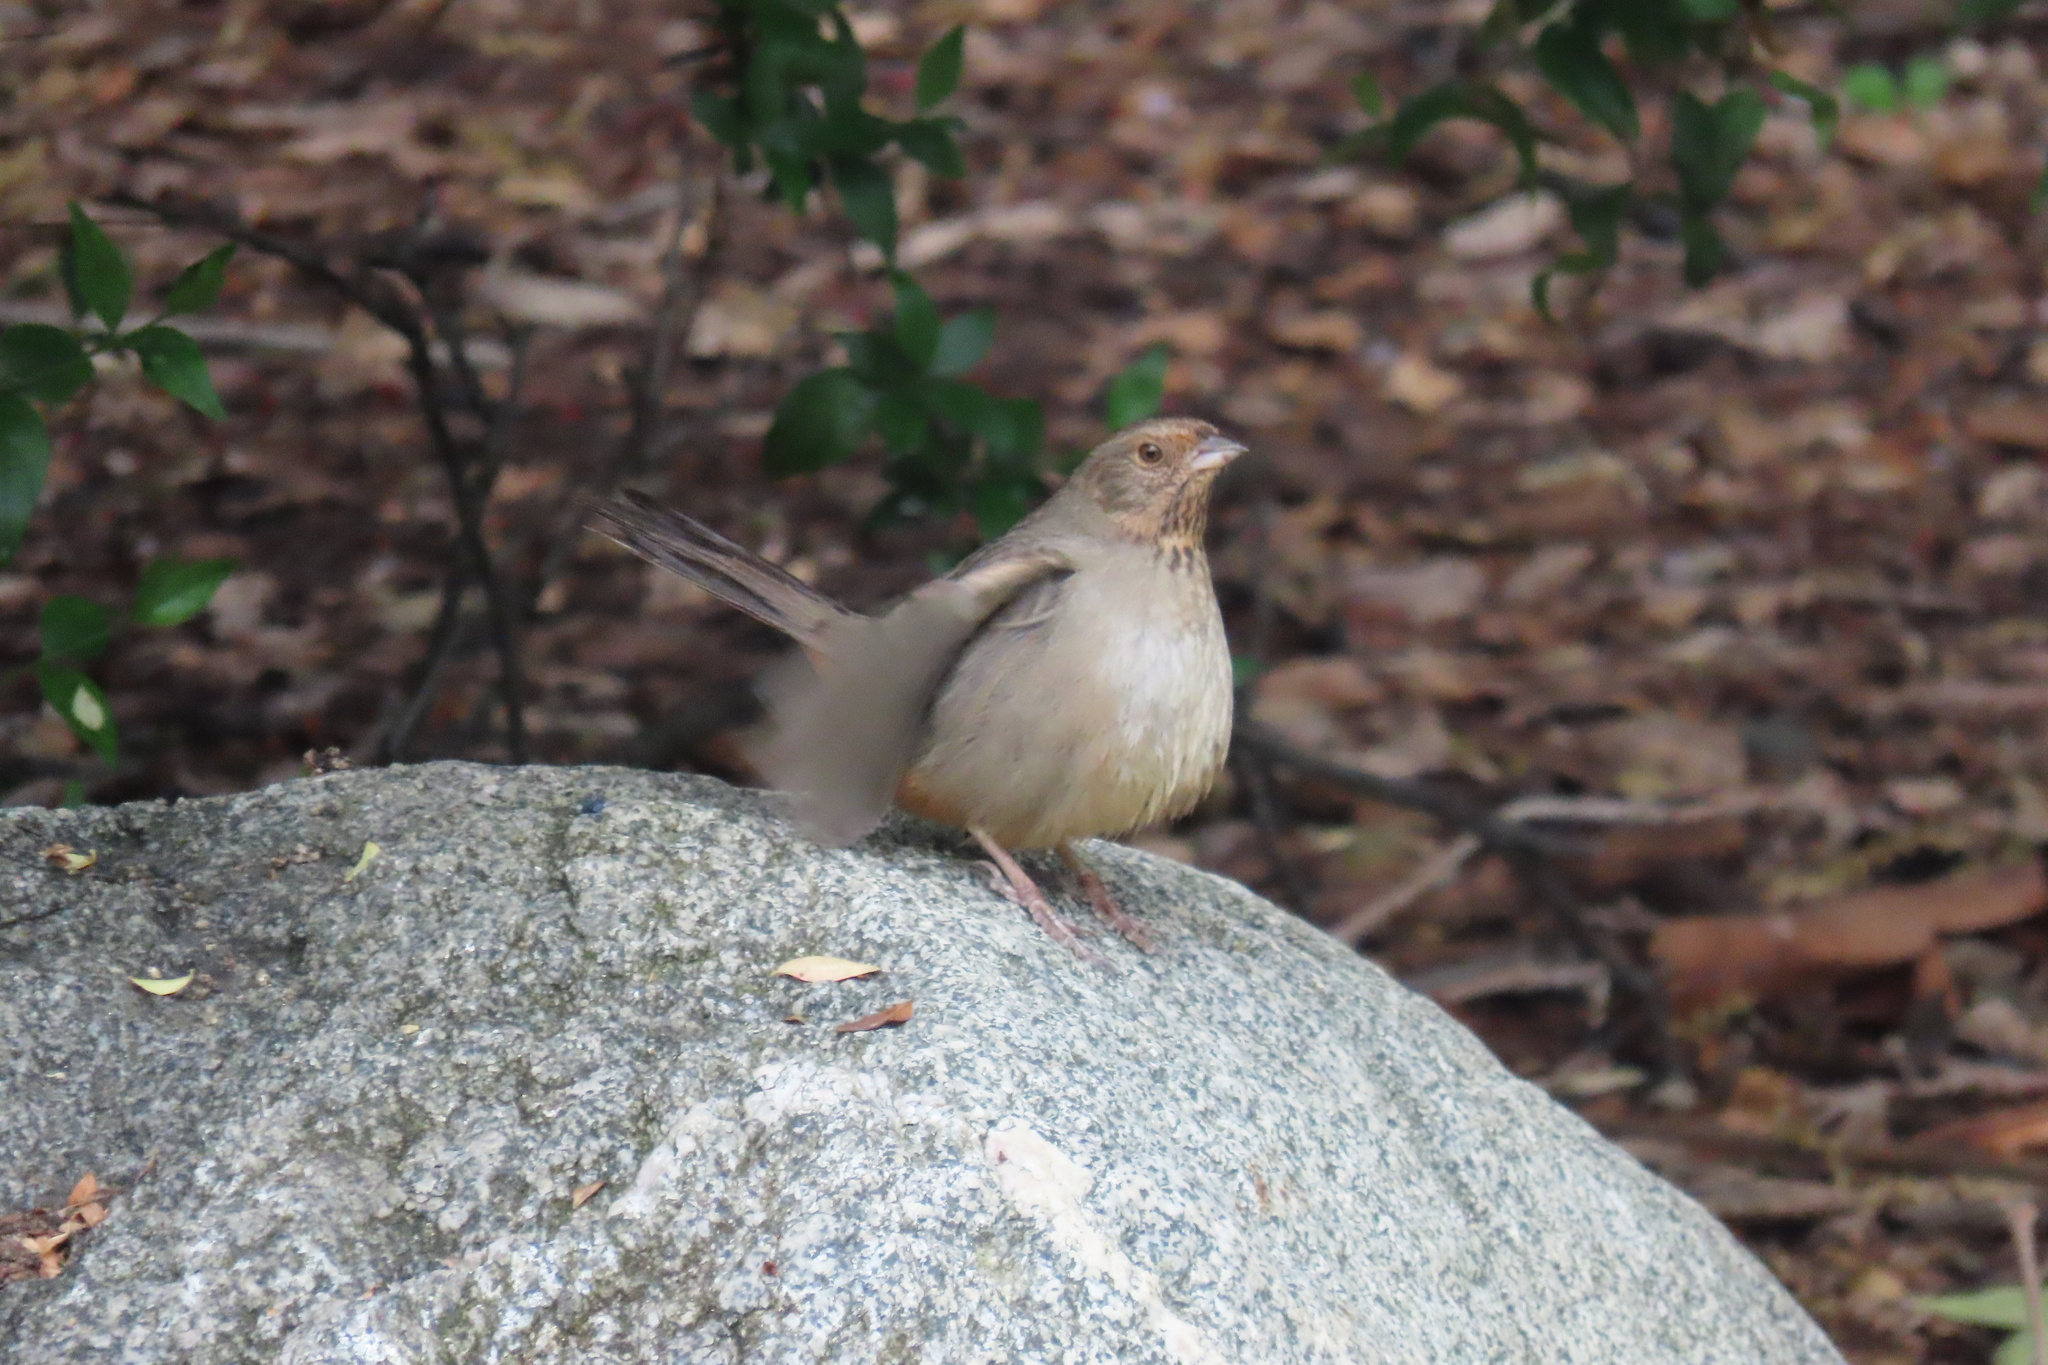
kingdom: Animalia
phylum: Chordata
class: Aves
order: Passeriformes
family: Passerellidae
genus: Melozone
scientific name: Melozone crissalis
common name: California towhee
